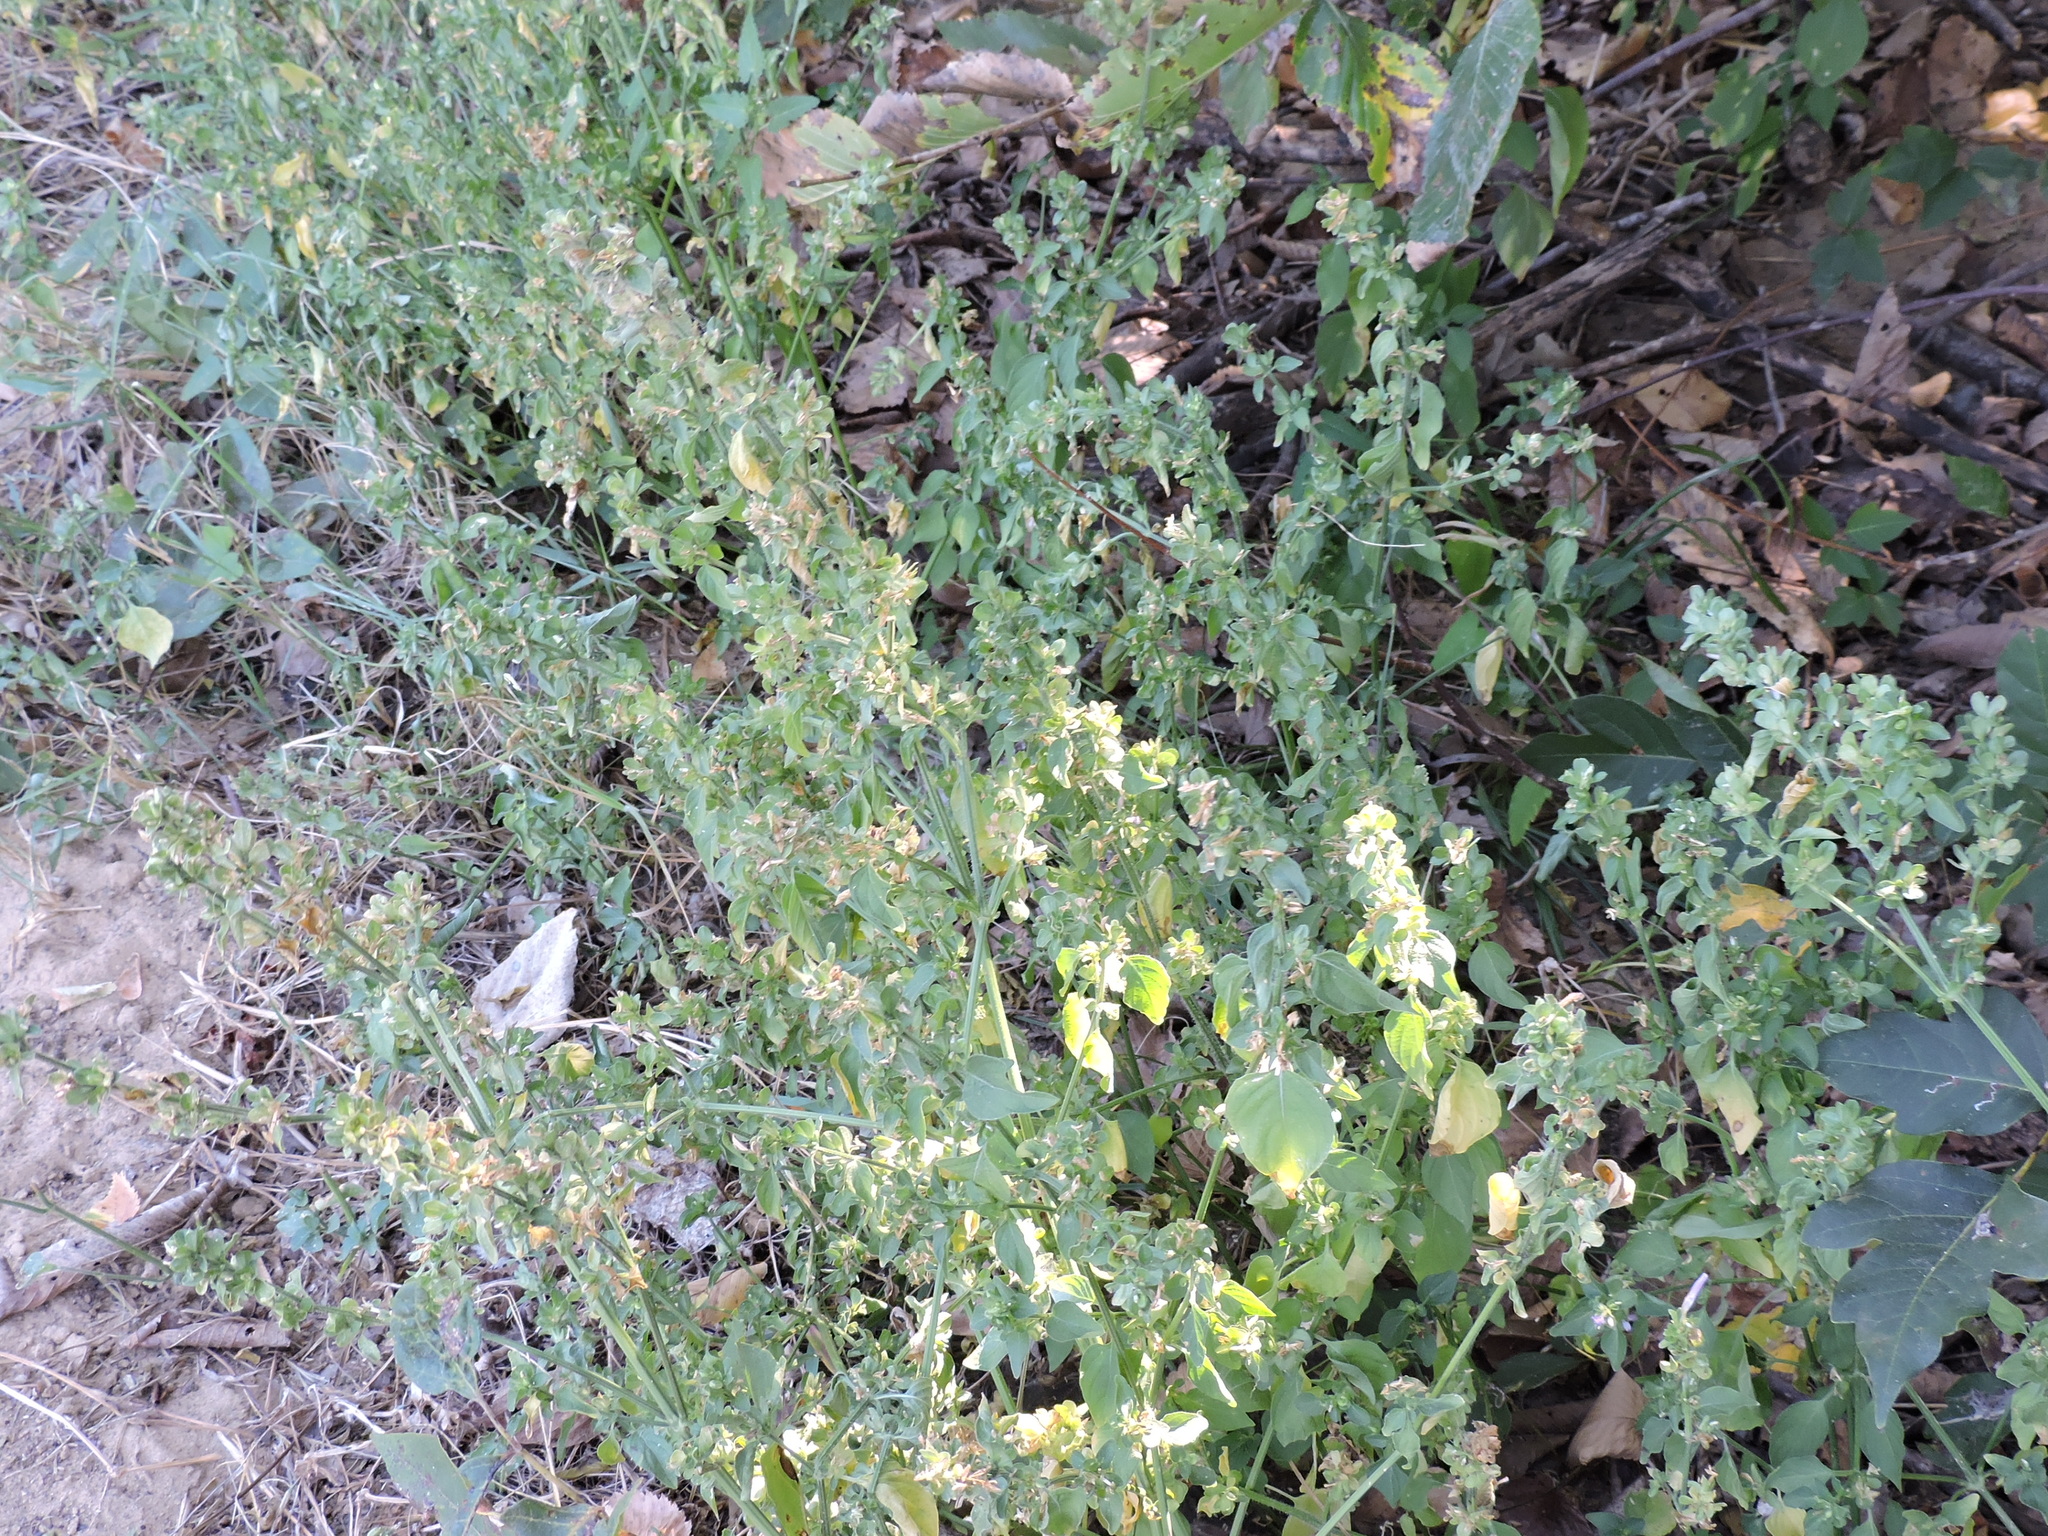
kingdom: Plantae
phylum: Tracheophyta
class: Magnoliopsida
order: Lamiales
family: Acanthaceae
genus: Dicliptera
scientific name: Dicliptera brachiata
